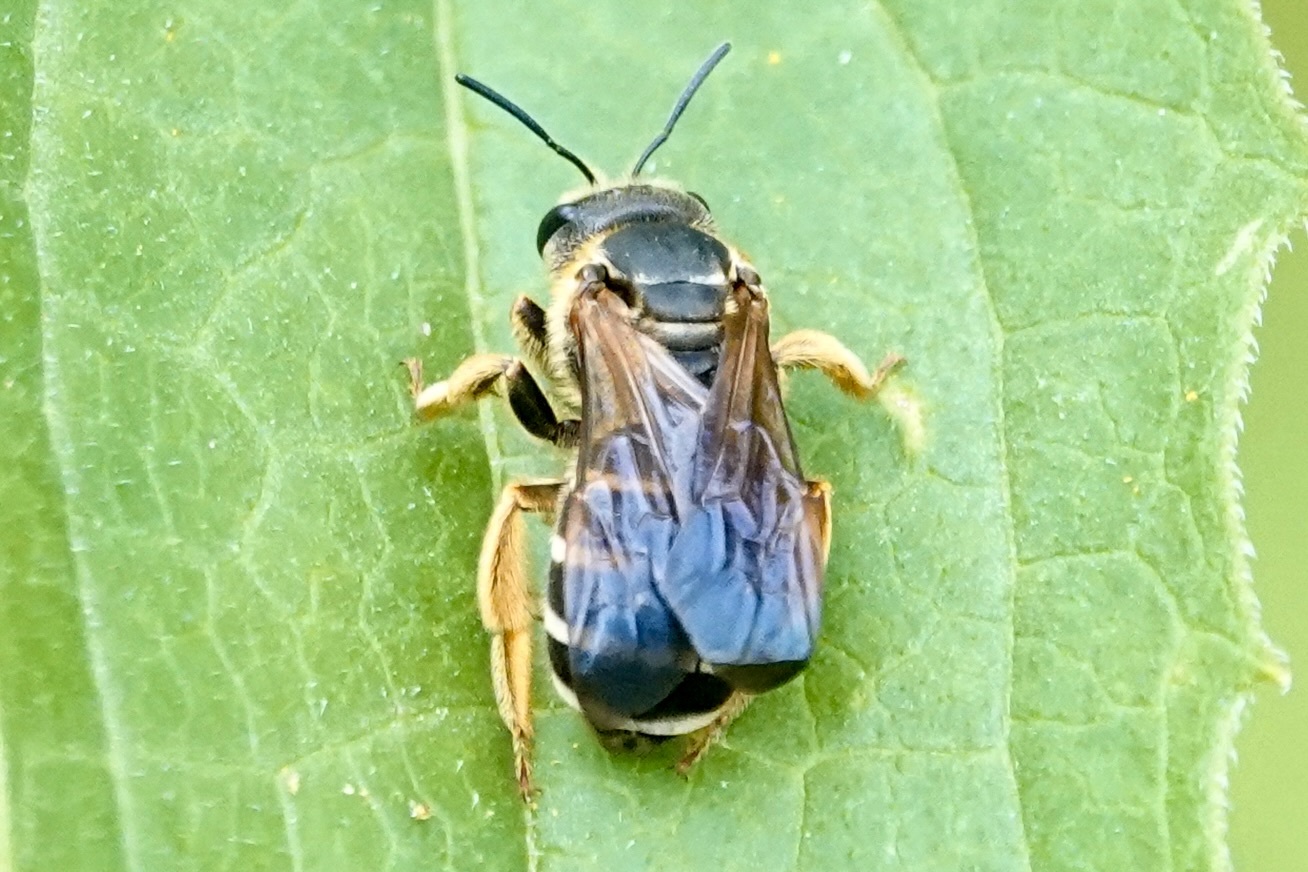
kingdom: Animalia
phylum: Arthropoda
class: Insecta
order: Hymenoptera
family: Halictidae
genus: Halictus
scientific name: Halictus parallelus
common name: Parallel-striped sweat bee
